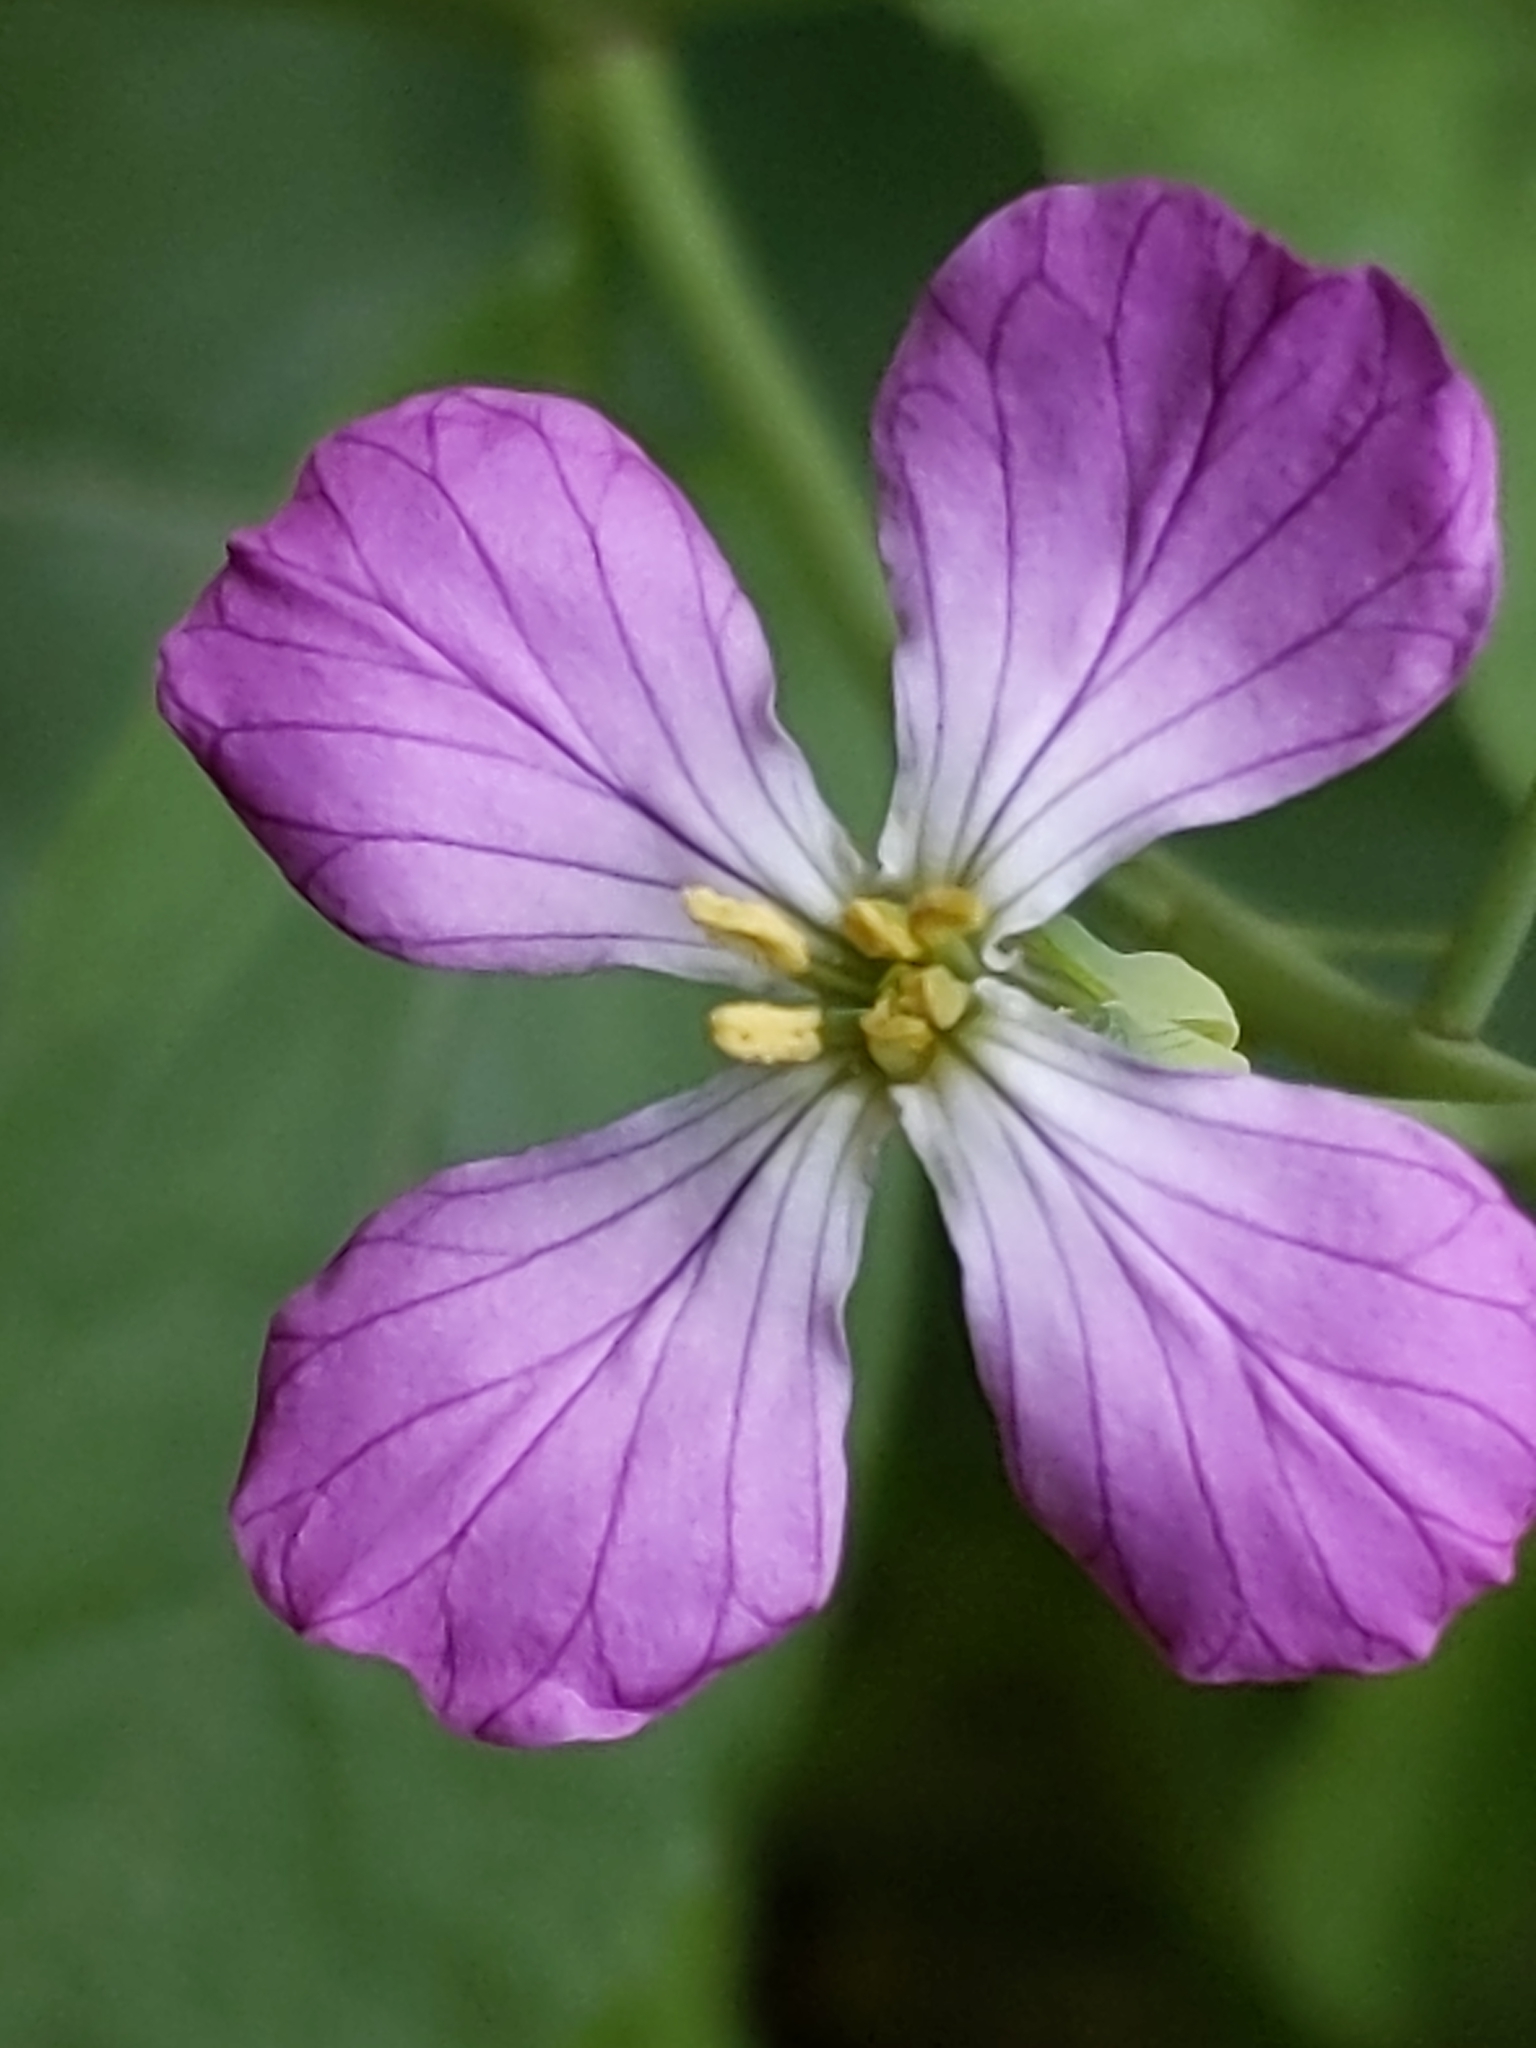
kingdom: Plantae
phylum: Tracheophyta
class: Magnoliopsida
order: Brassicales
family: Brassicaceae
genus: Raphanus
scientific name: Raphanus sativus
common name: Cultivated radish
